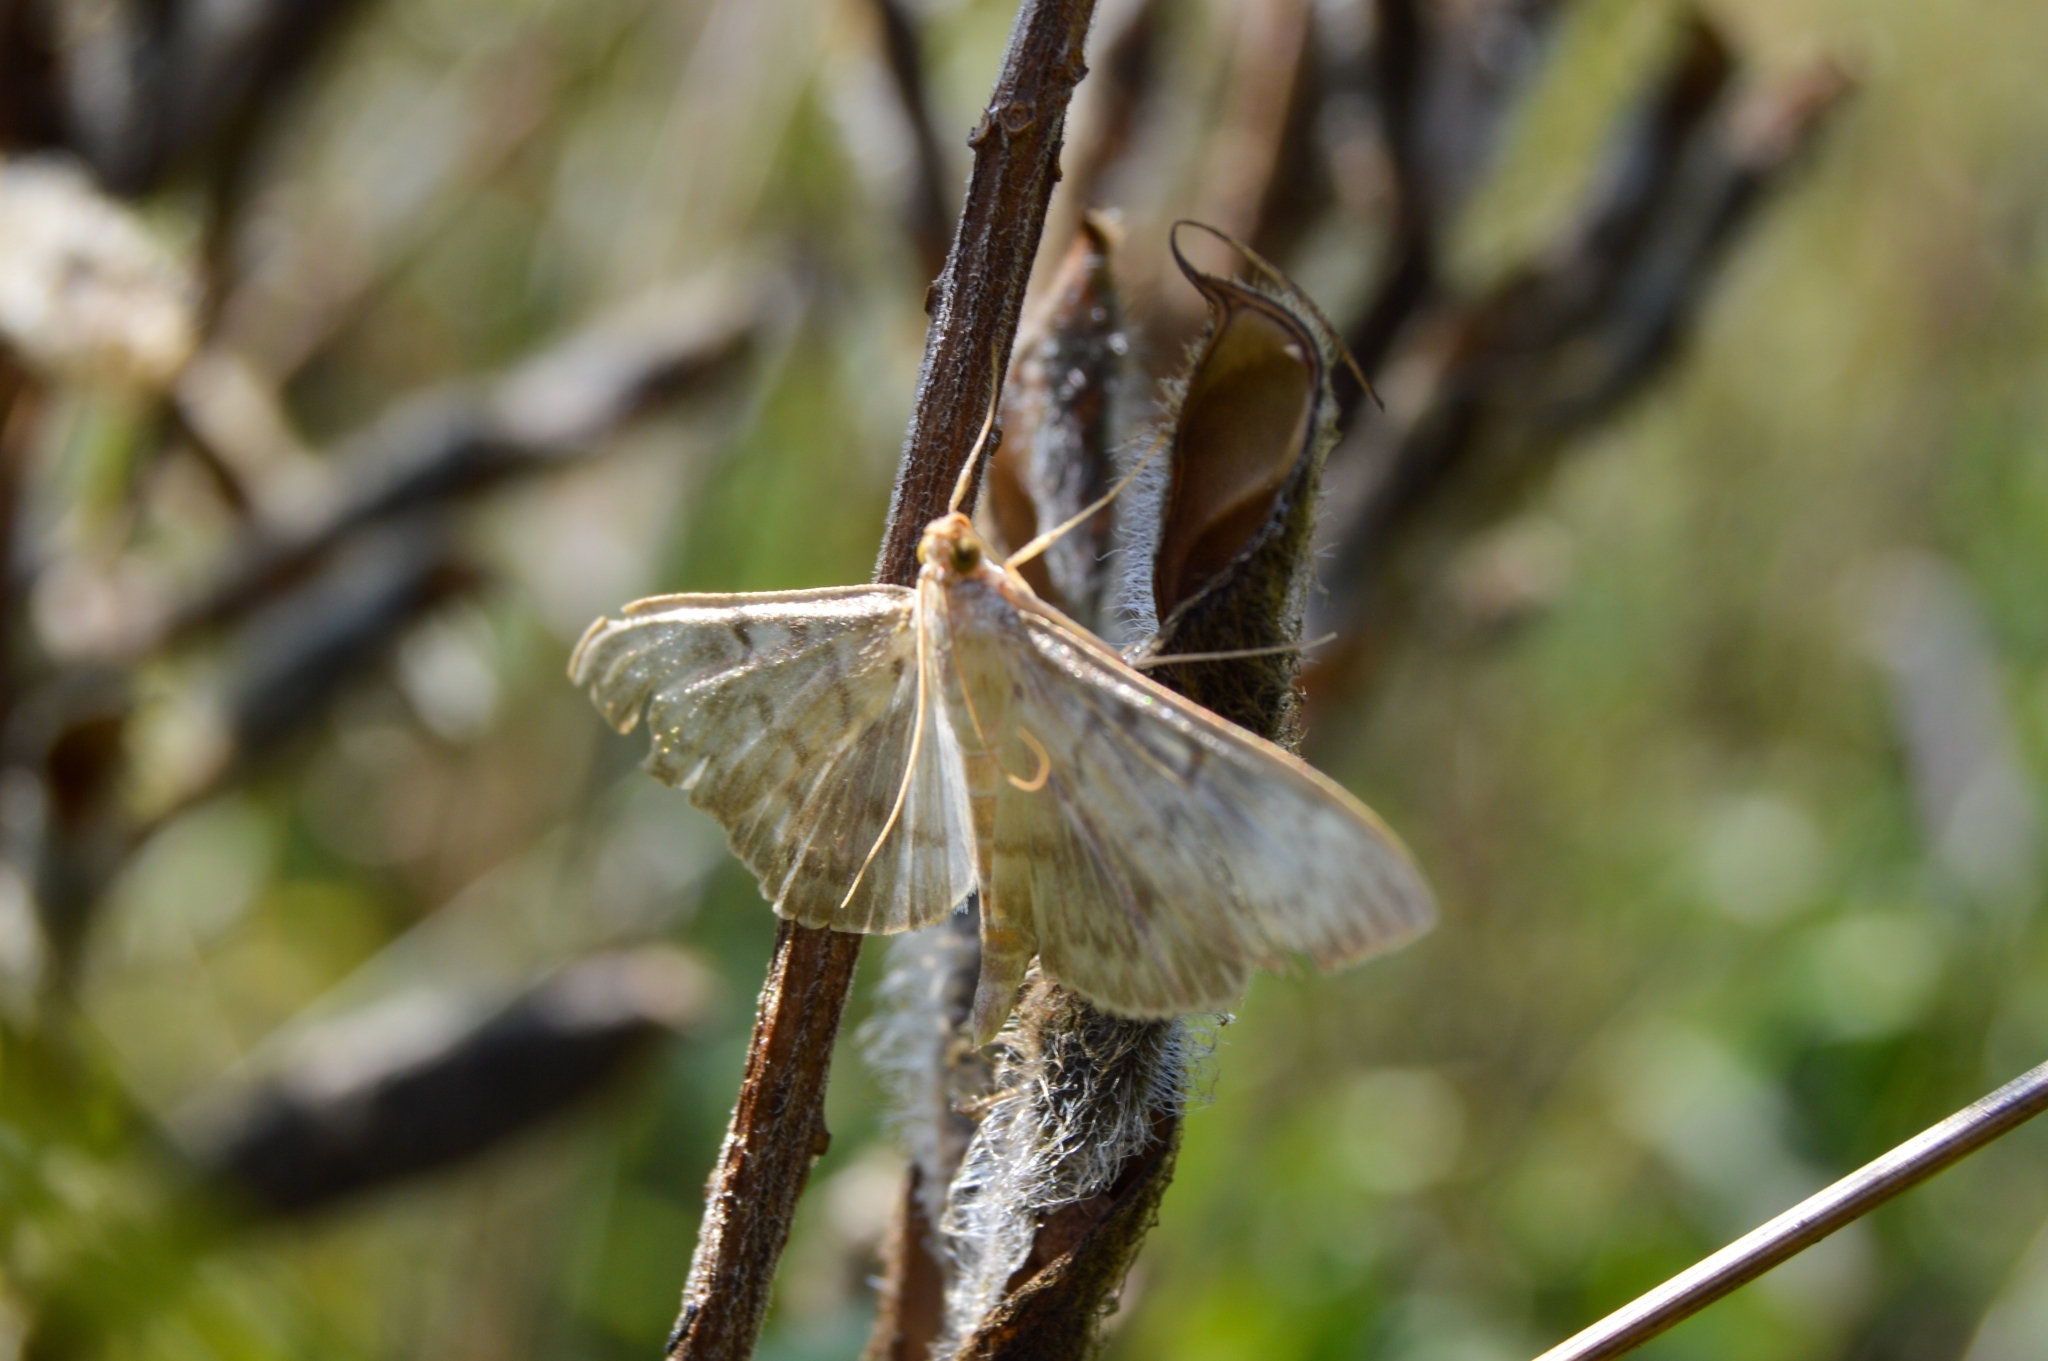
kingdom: Animalia
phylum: Arthropoda
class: Insecta
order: Lepidoptera
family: Crambidae
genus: Patania
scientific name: Patania ruralis
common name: Mother of pearl
